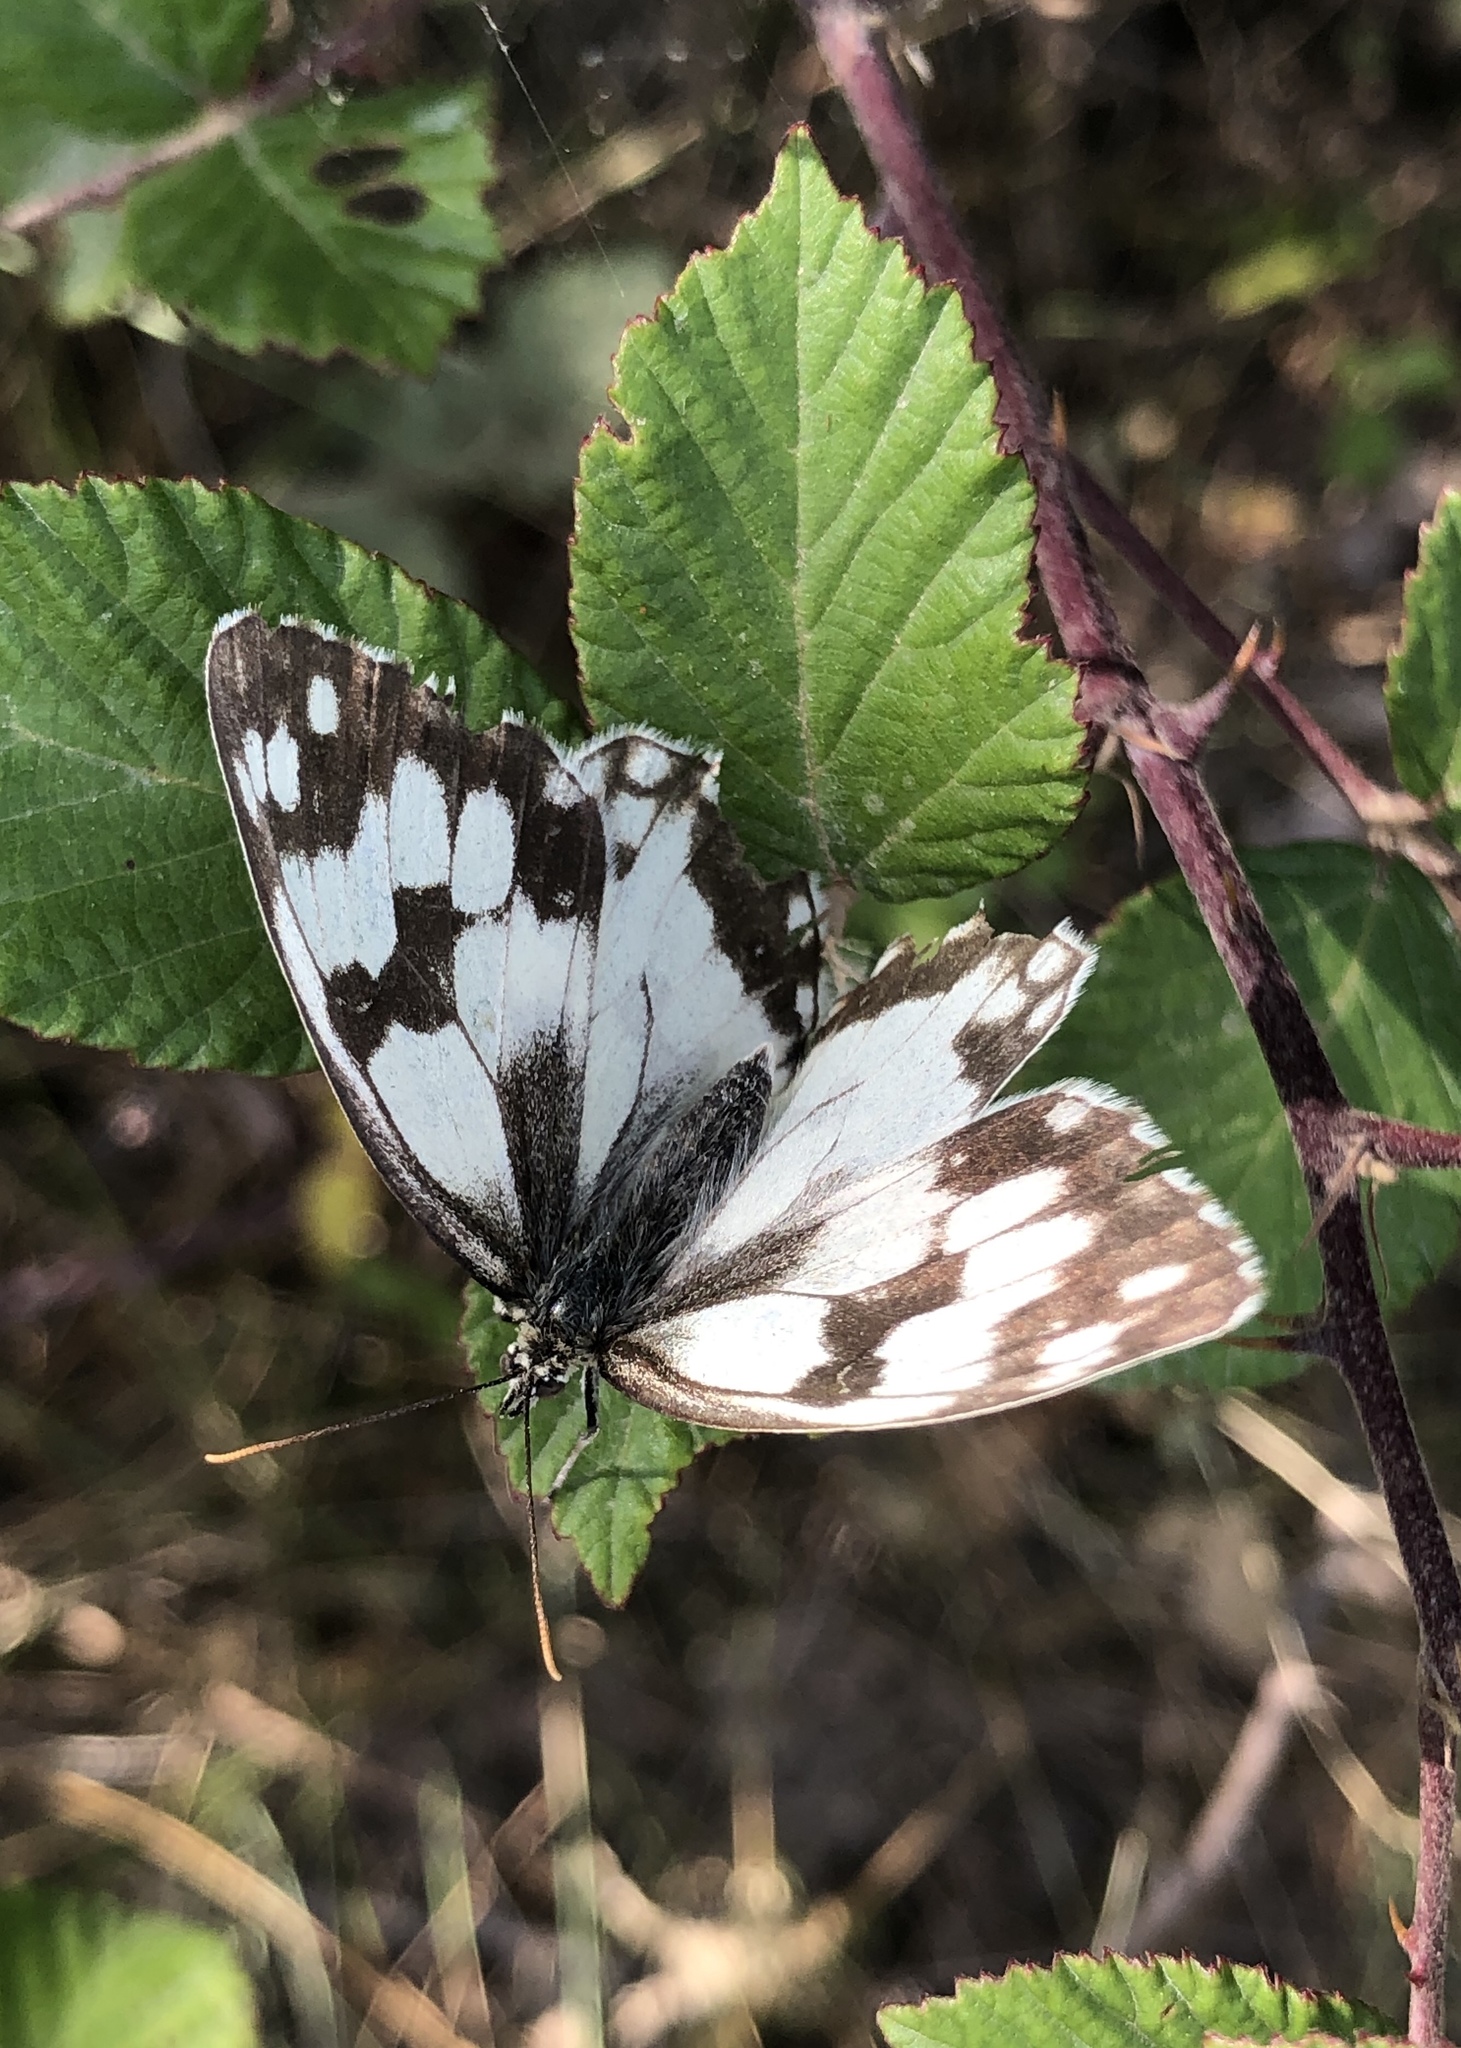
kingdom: Animalia
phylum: Arthropoda
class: Insecta
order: Lepidoptera
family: Nymphalidae
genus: Melanargia
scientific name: Melanargia lachesis
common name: Iberian marbled white
